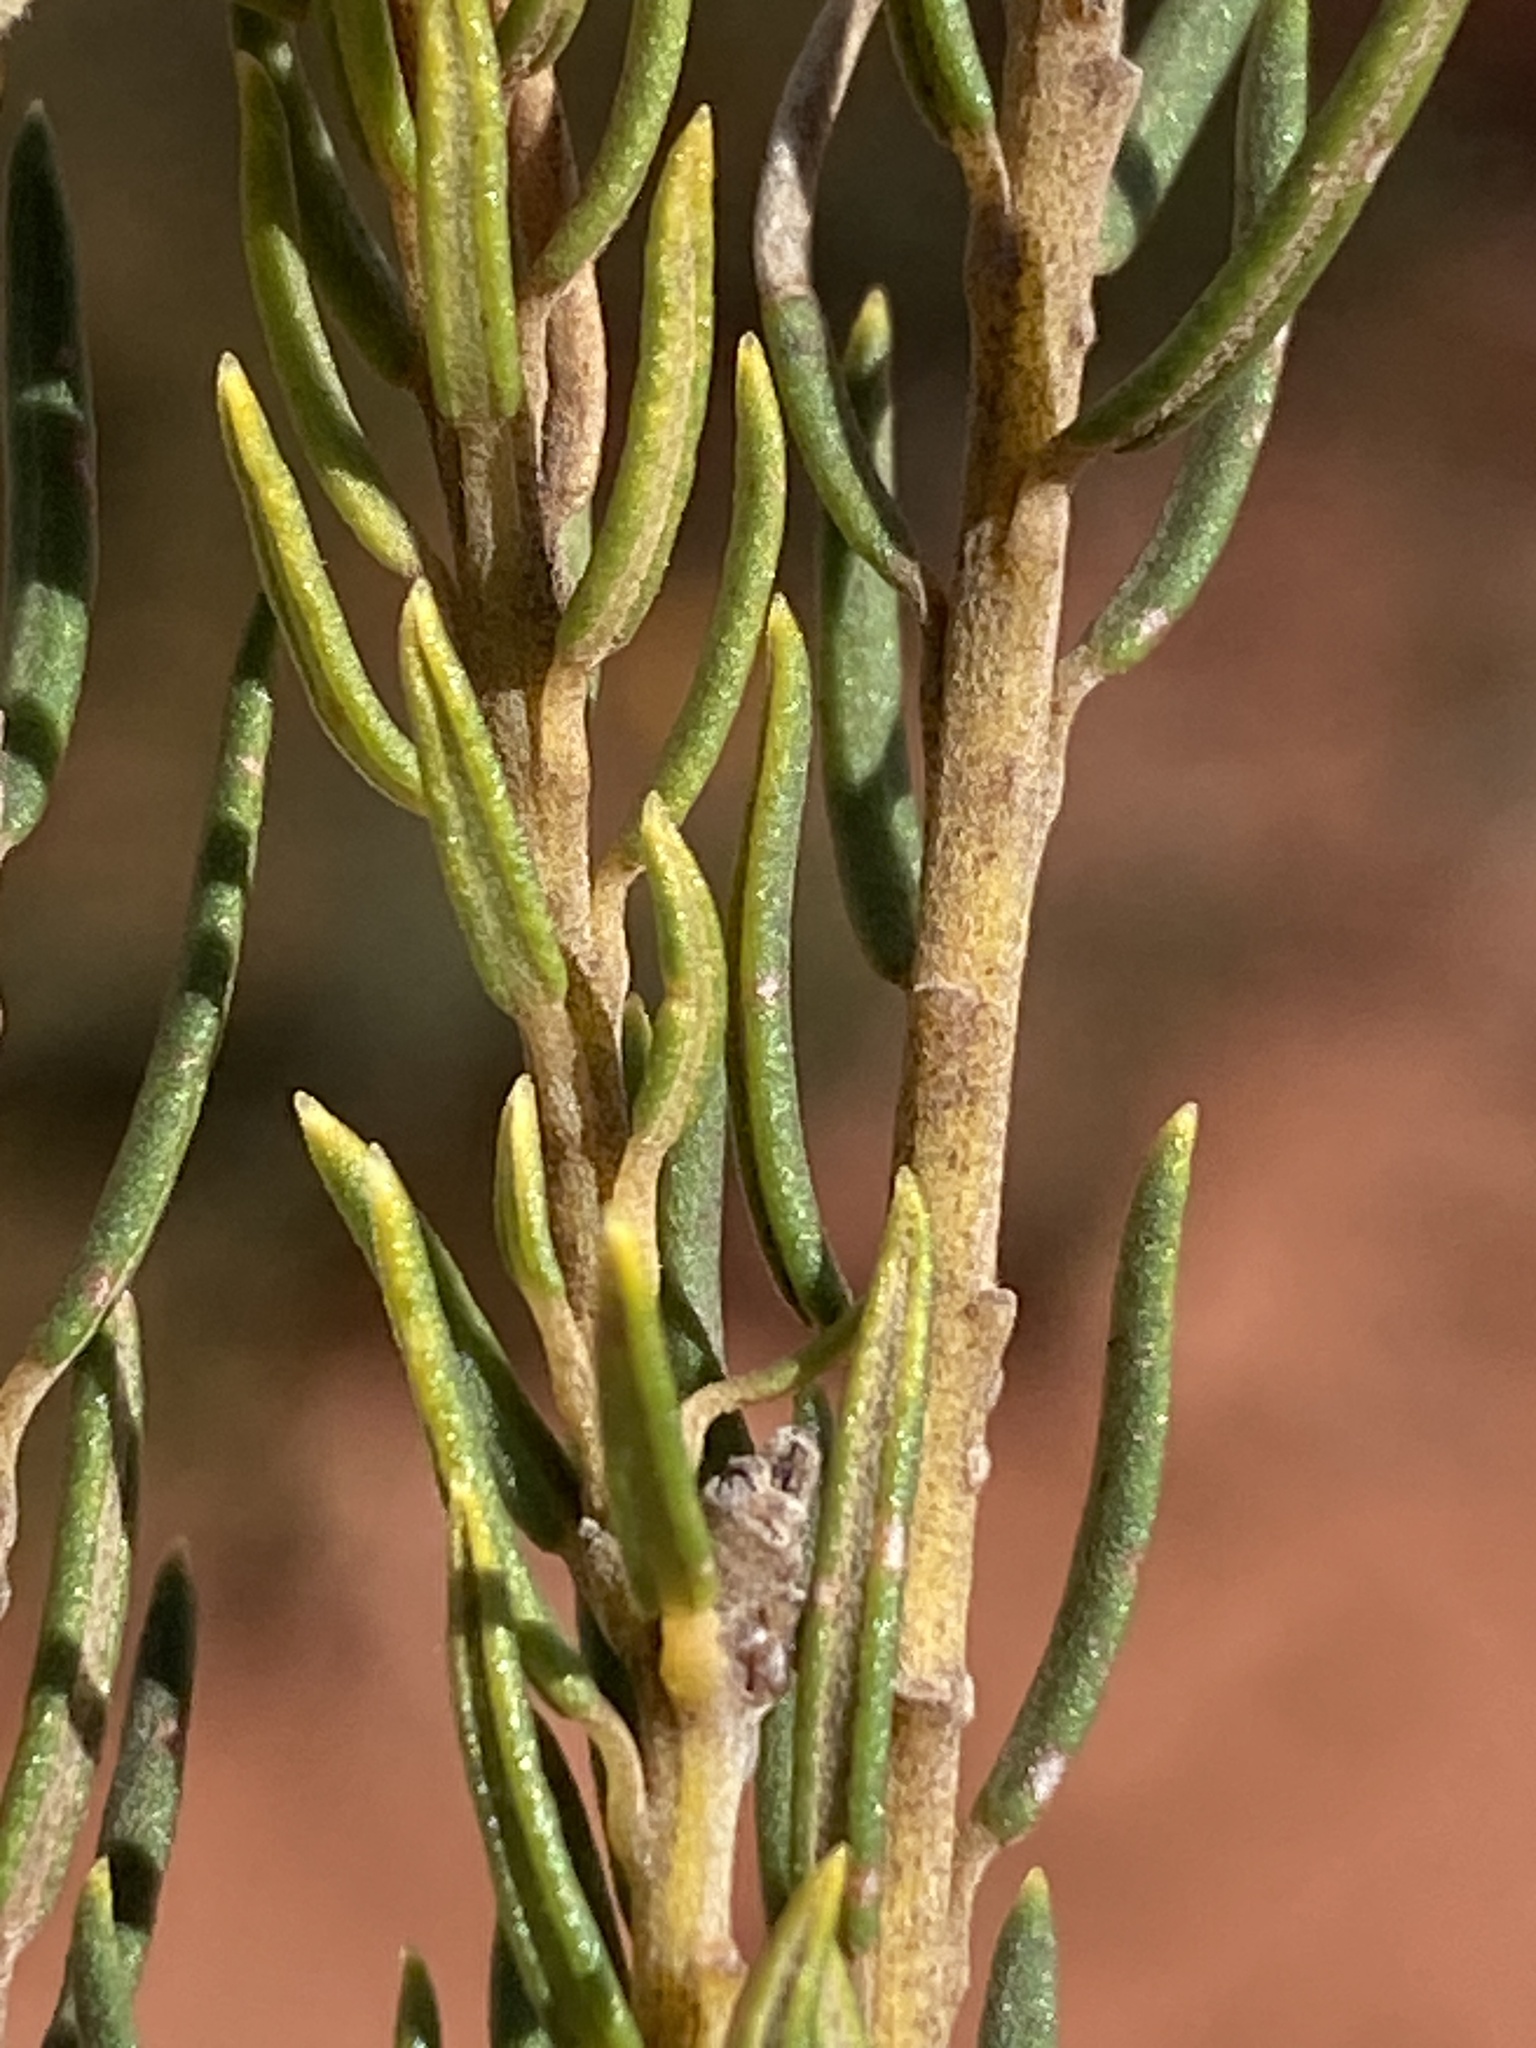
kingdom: Plantae
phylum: Tracheophyta
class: Magnoliopsida
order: Rosales
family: Rhamnaceae
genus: Phylica
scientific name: Phylica rigidifolia
